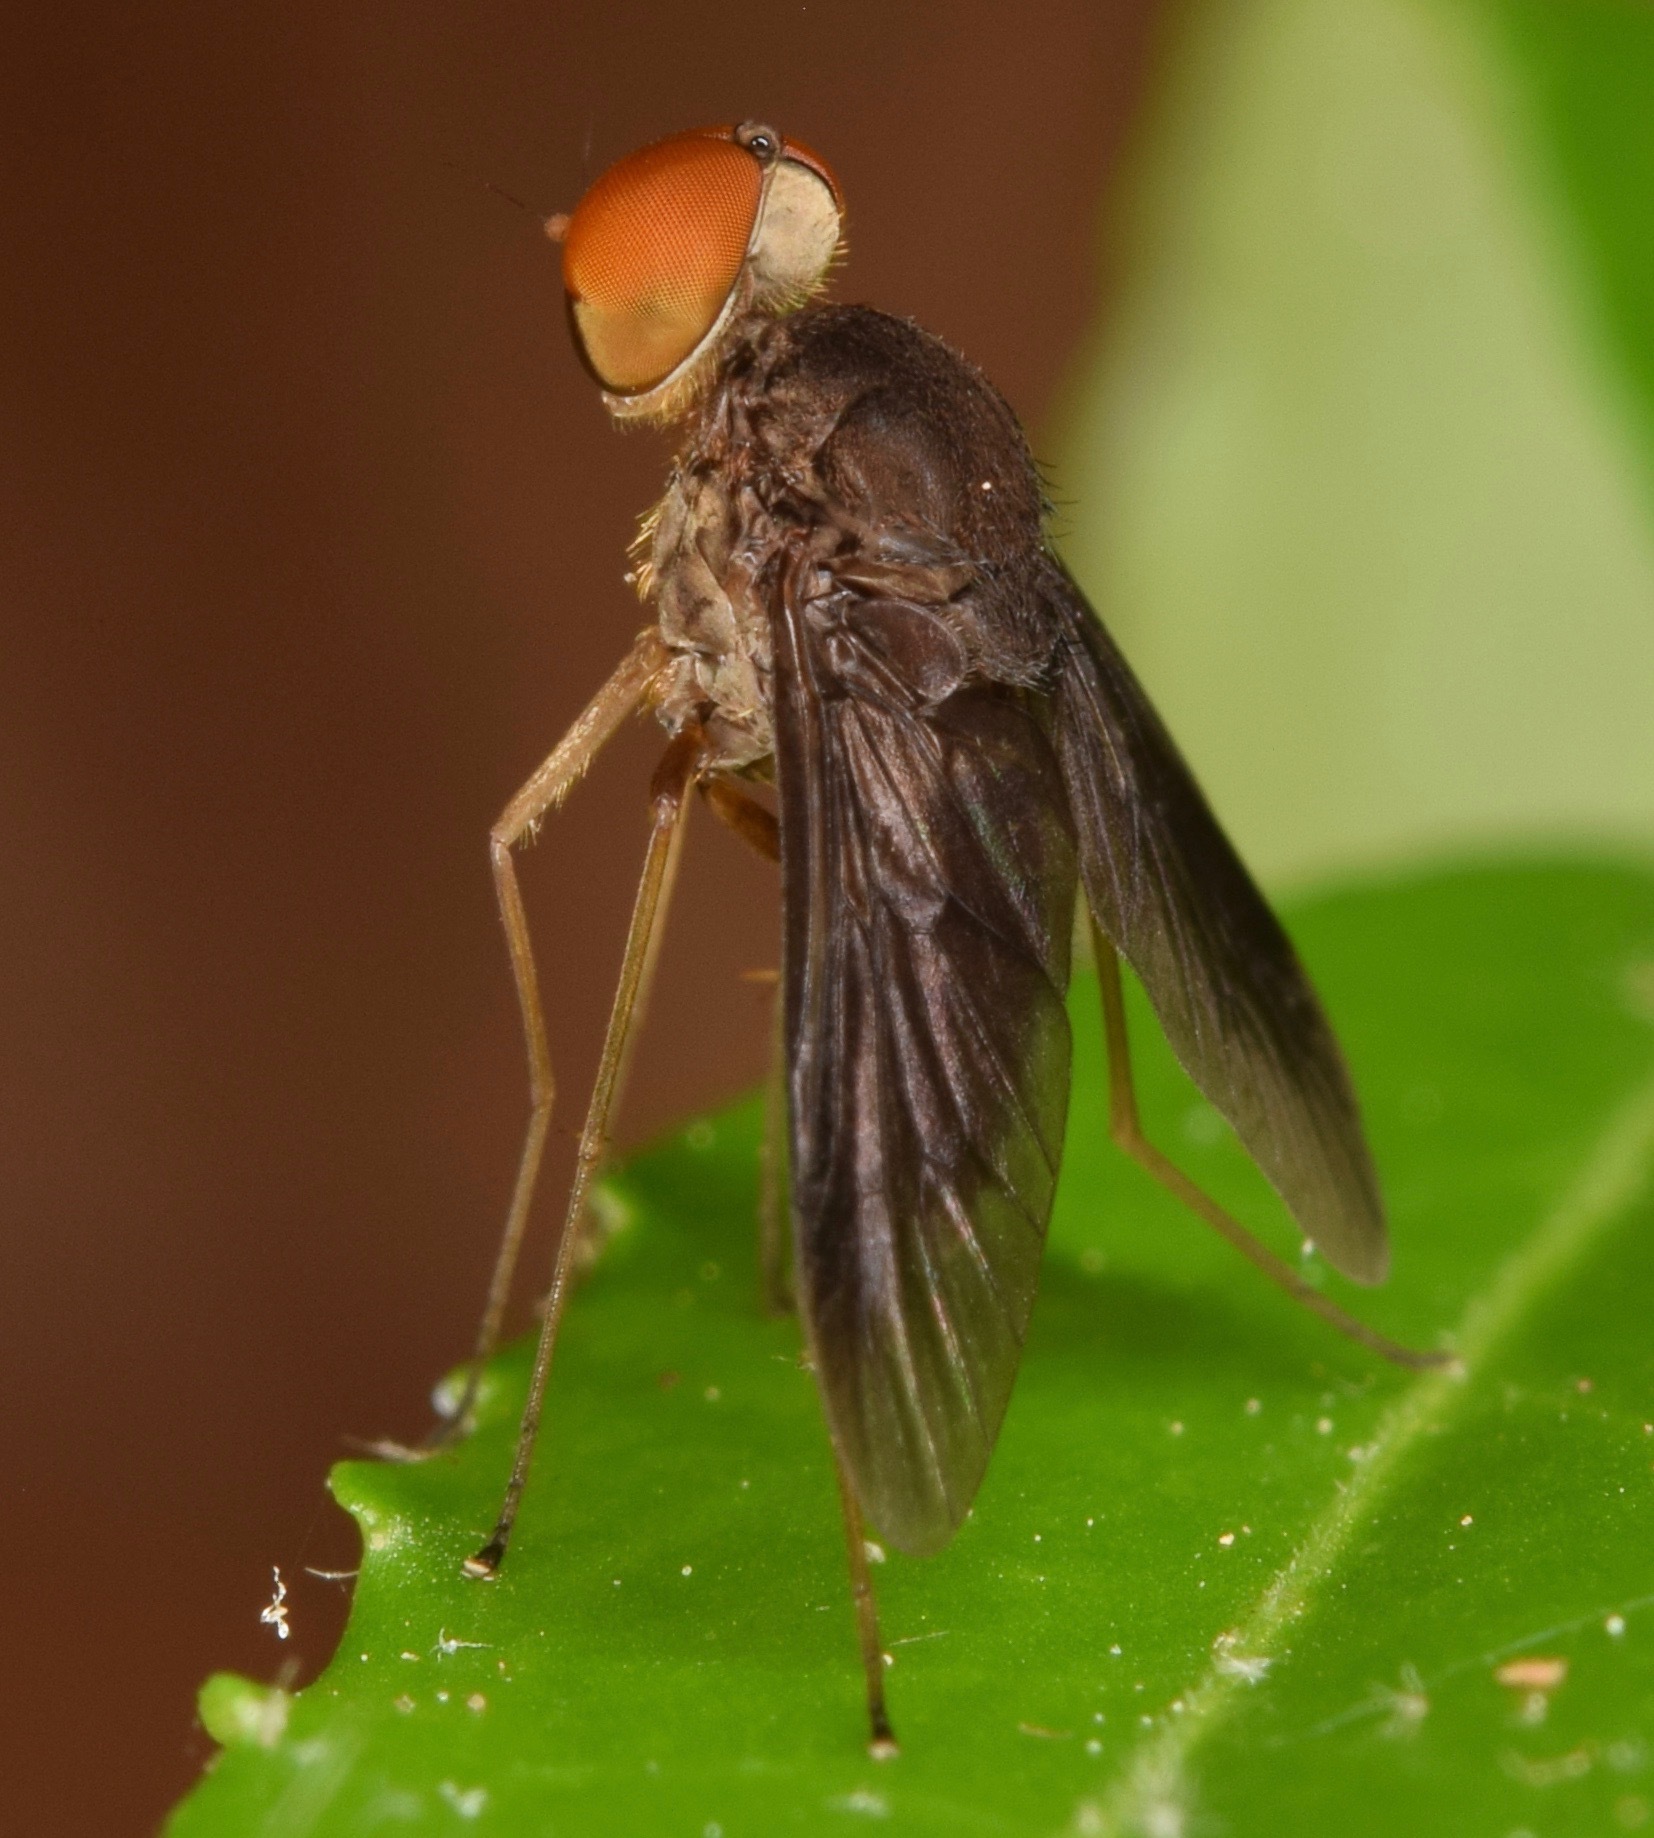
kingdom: Animalia
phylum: Arthropoda
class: Insecta
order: Diptera
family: Rhagionidae
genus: Chrysopilus
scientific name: Chrysopilus quadratus
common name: Quadrate snipe fly
